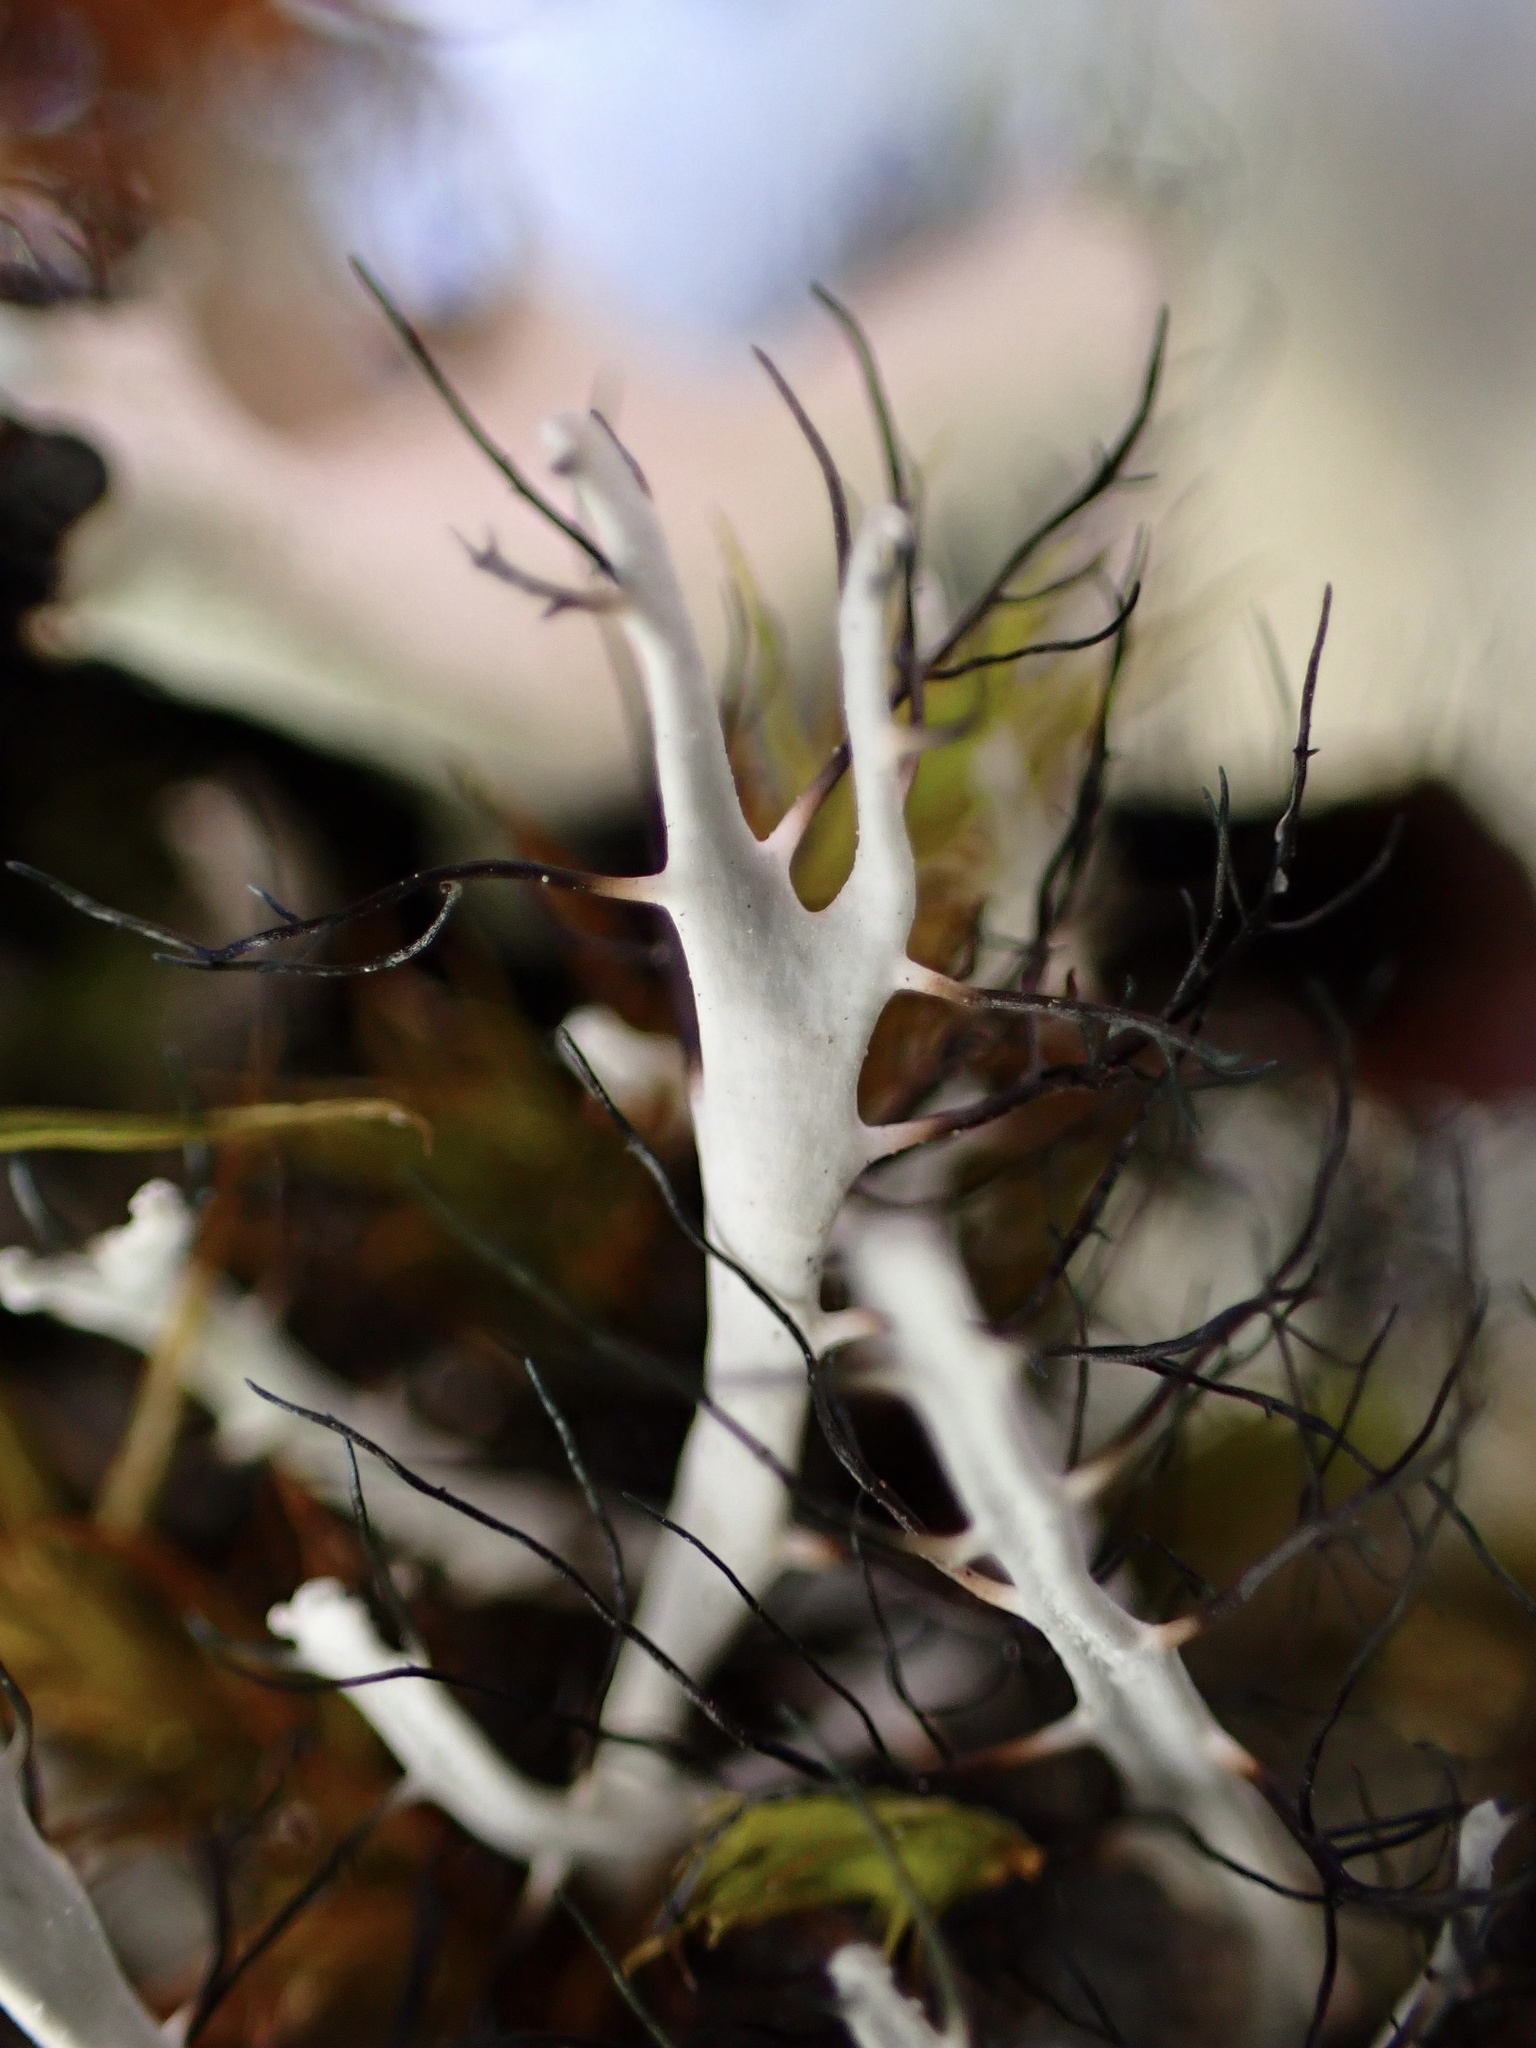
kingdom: Fungi
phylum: Ascomycota
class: Lecanoromycetes
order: Caliciales
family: Physciaceae
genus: Leucodermia
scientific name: Leucodermia leucomelos
